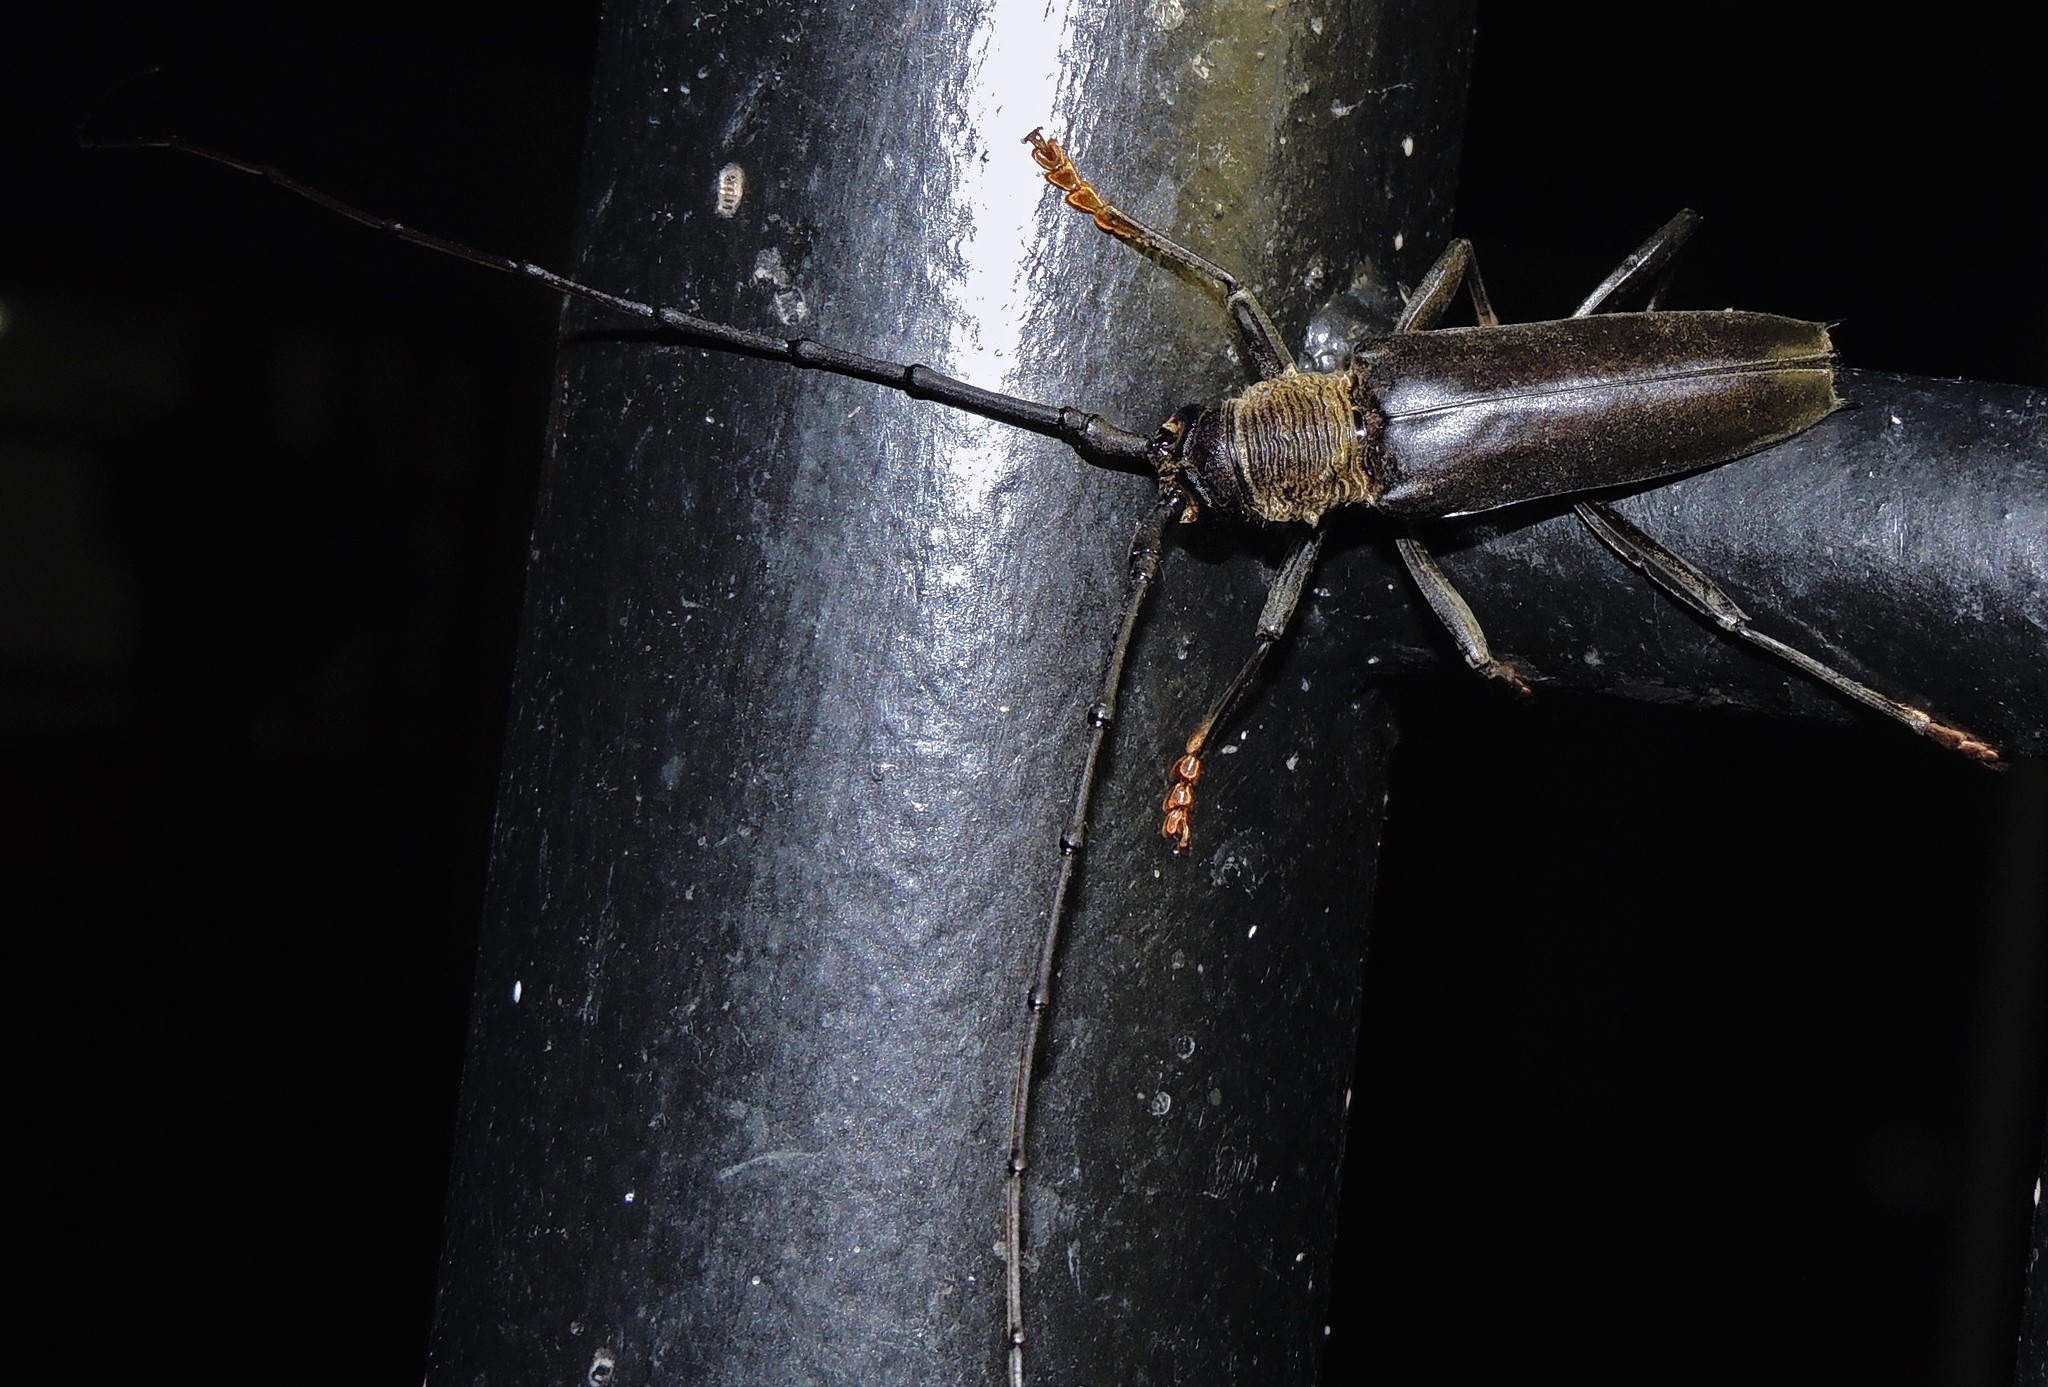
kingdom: Animalia
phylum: Arthropoda
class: Insecta
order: Coleoptera
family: Cerambycidae
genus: Juiaparus
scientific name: Juiaparus batus
